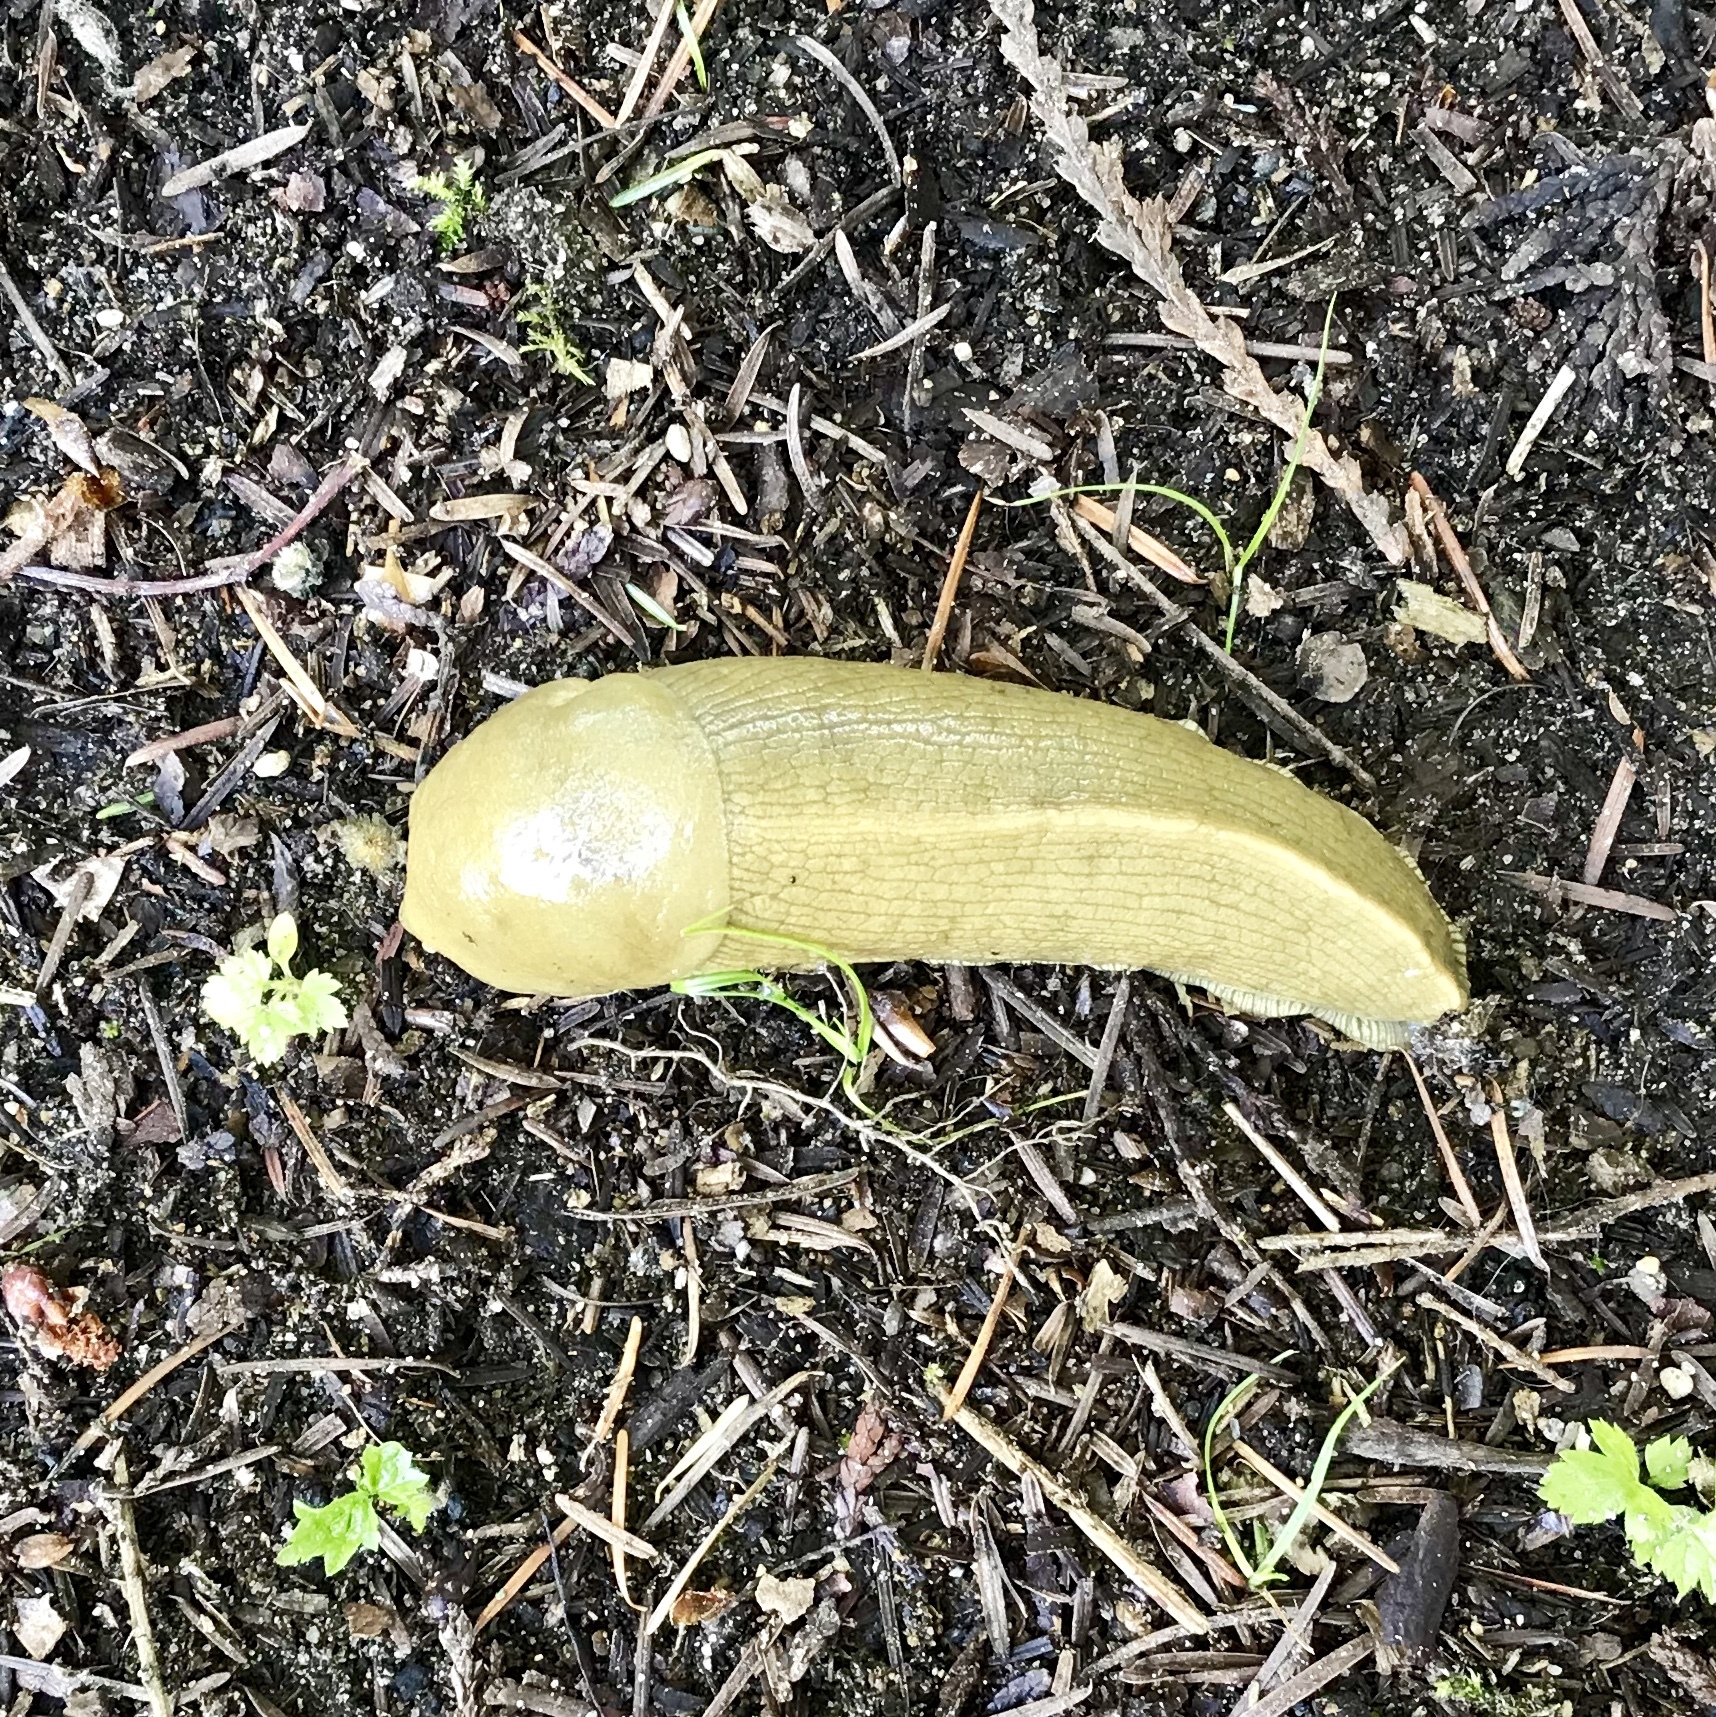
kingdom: Animalia
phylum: Mollusca
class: Gastropoda
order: Stylommatophora
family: Ariolimacidae
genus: Ariolimax
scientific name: Ariolimax columbianus
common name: Pacific banana slug
